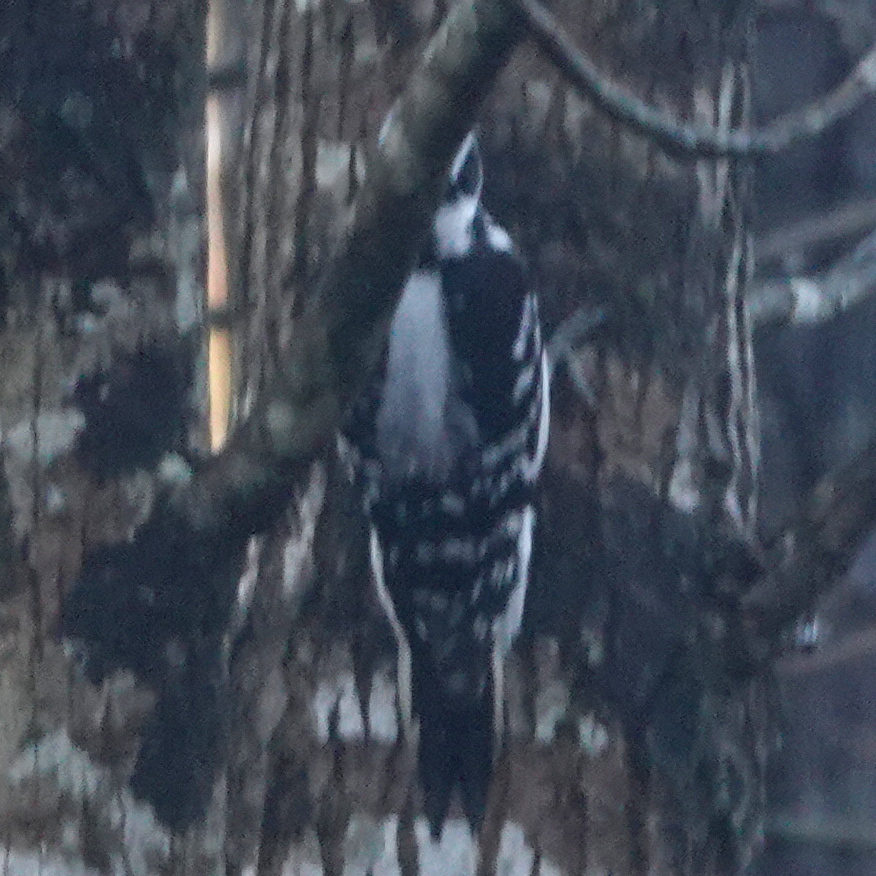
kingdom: Animalia
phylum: Chordata
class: Aves
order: Piciformes
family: Picidae
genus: Leuconotopicus
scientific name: Leuconotopicus villosus
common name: Hairy woodpecker
